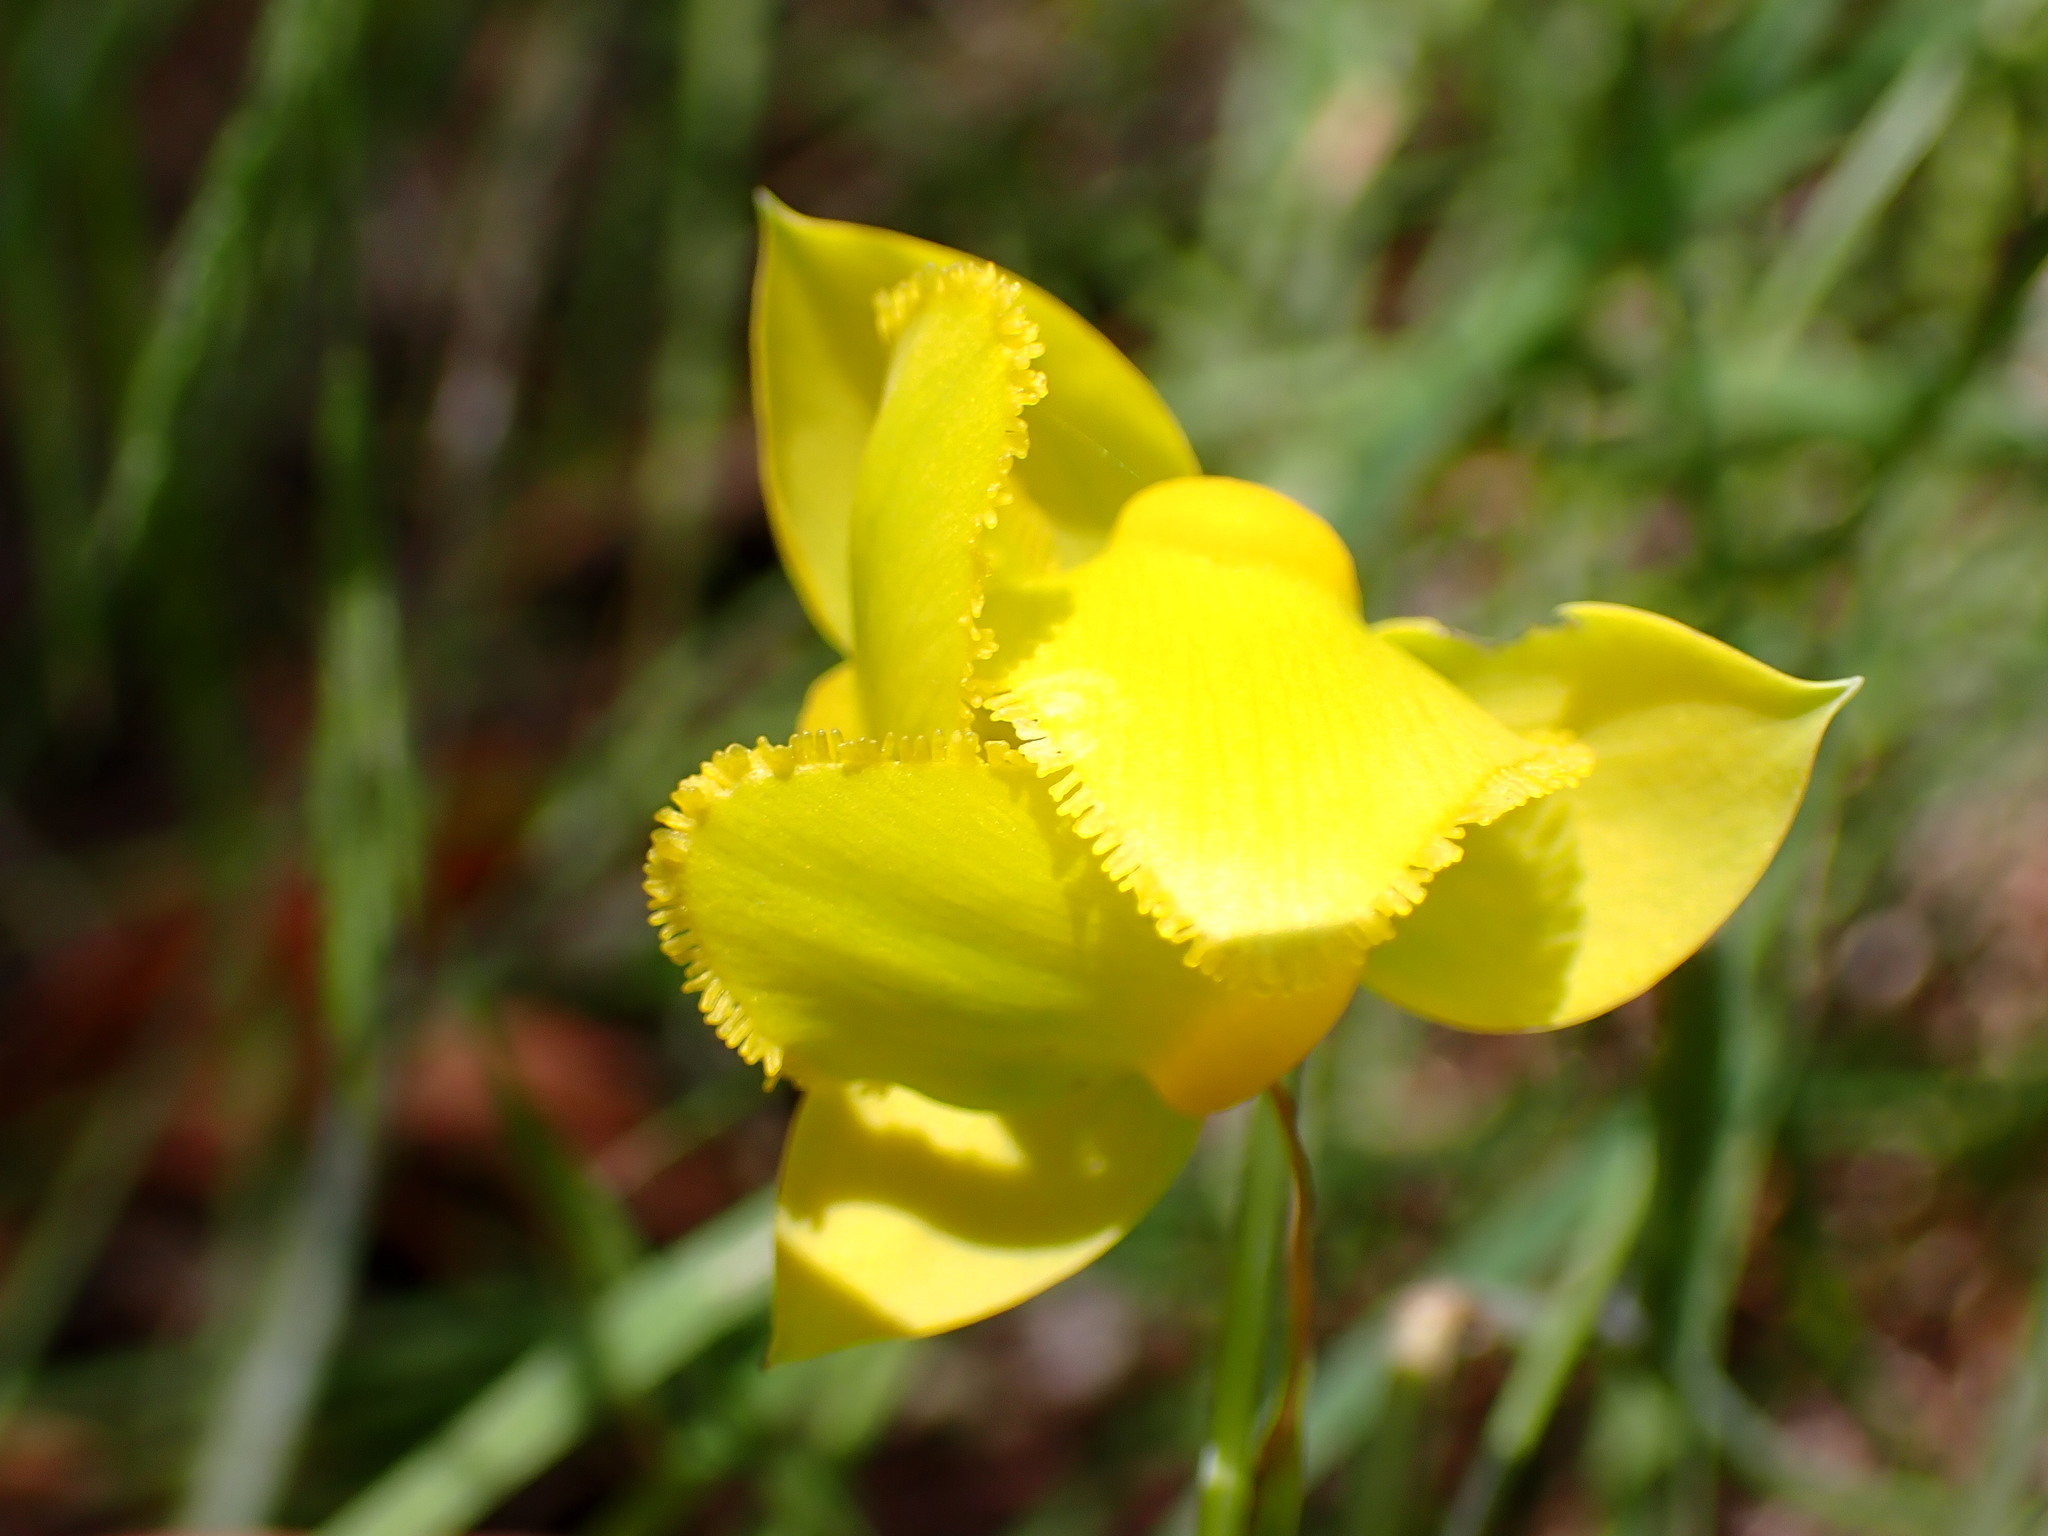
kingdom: Plantae
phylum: Tracheophyta
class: Liliopsida
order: Liliales
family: Liliaceae
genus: Calochortus
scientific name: Calochortus amabilis
